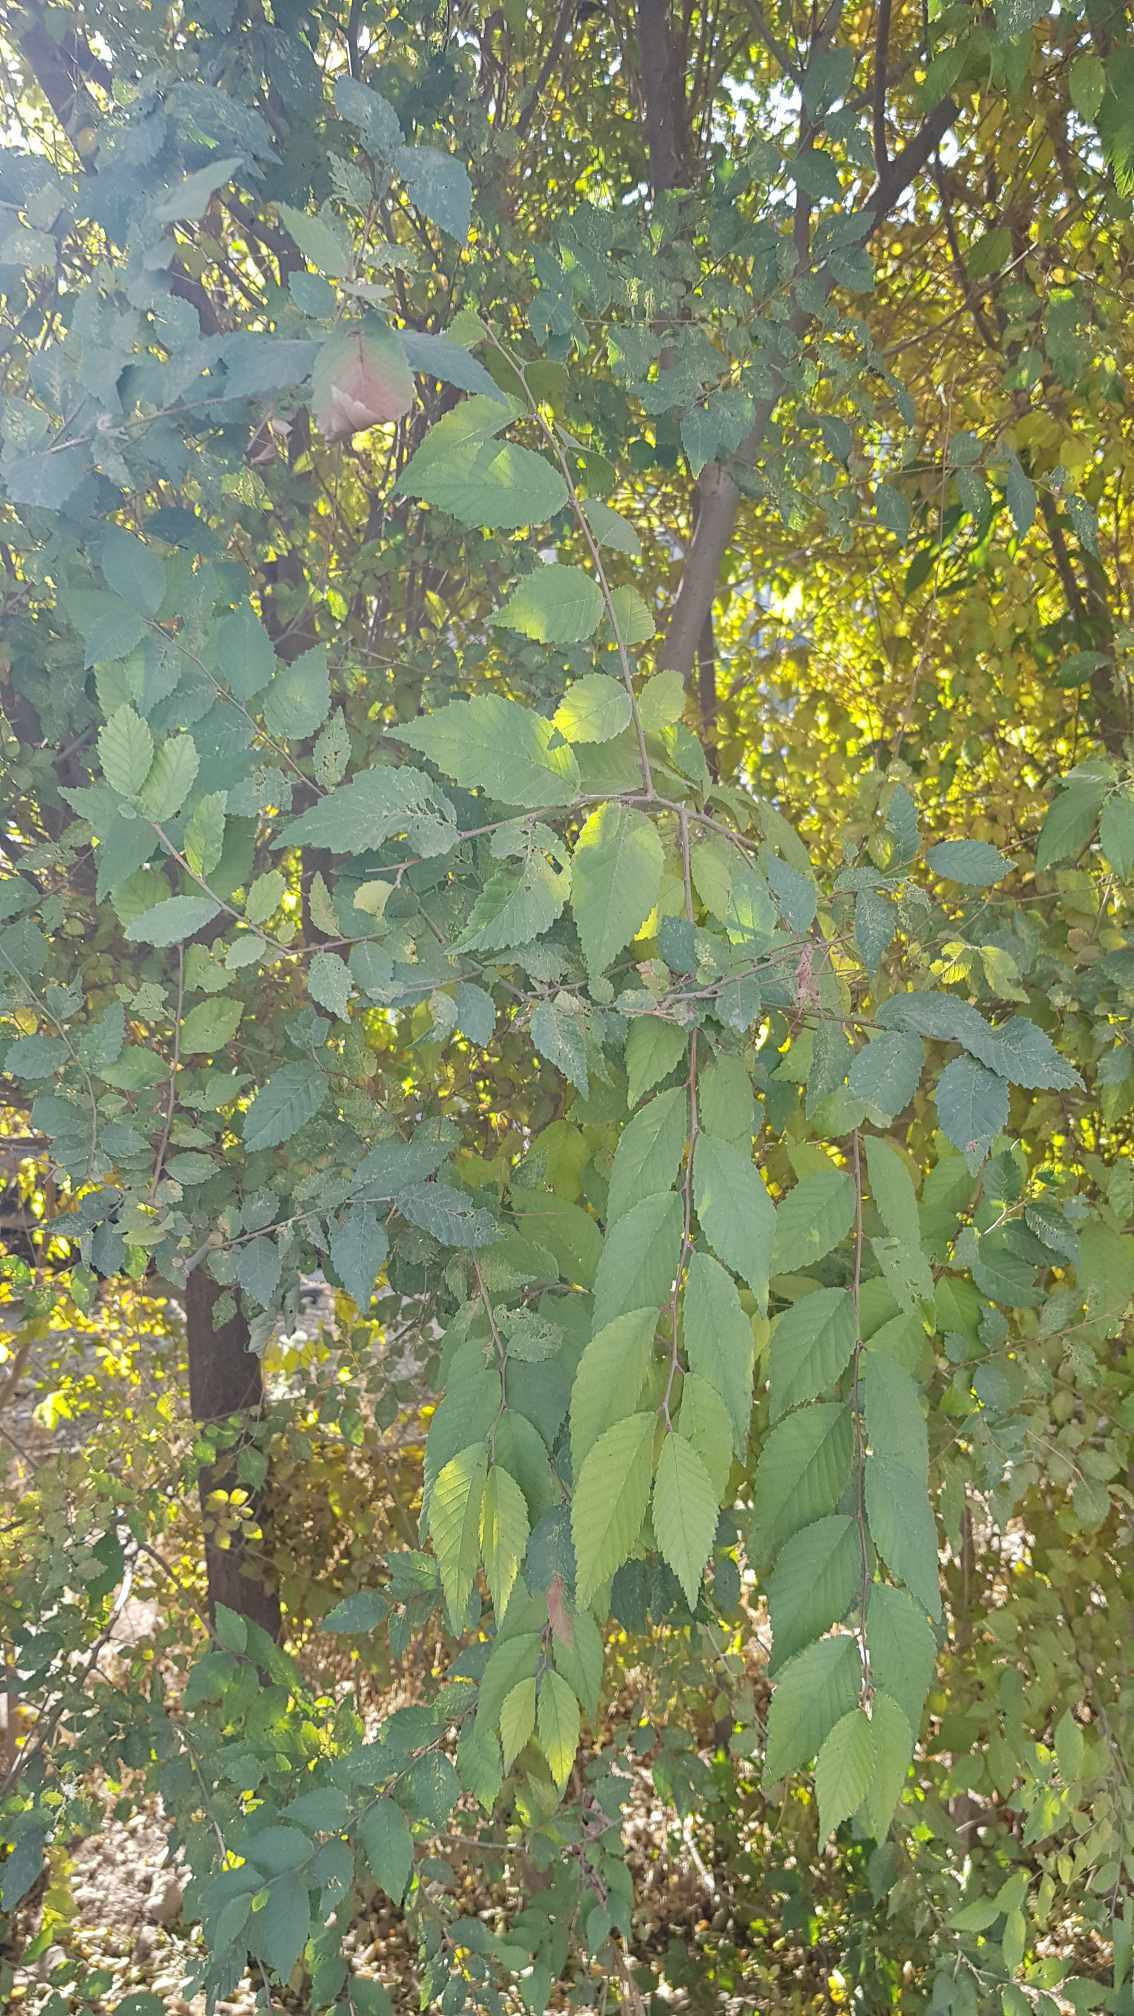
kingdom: Plantae
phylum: Tracheophyta
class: Magnoliopsida
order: Rosales
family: Ulmaceae
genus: Ulmus
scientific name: Ulmus pumila
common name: Siberian elm
